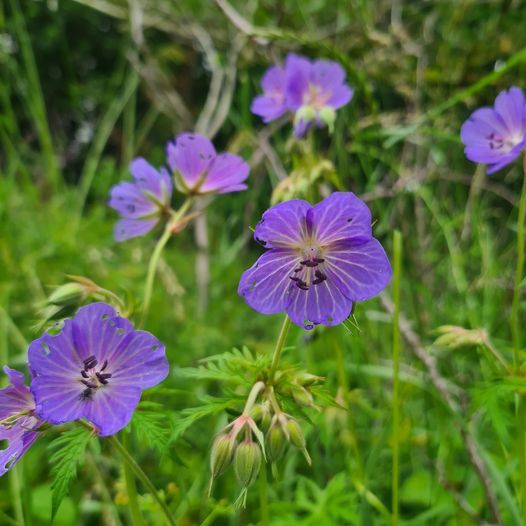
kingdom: Plantae
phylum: Tracheophyta
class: Magnoliopsida
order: Geraniales
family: Geraniaceae
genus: Geranium
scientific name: Geranium pratense
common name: Meadow crane's-bill
